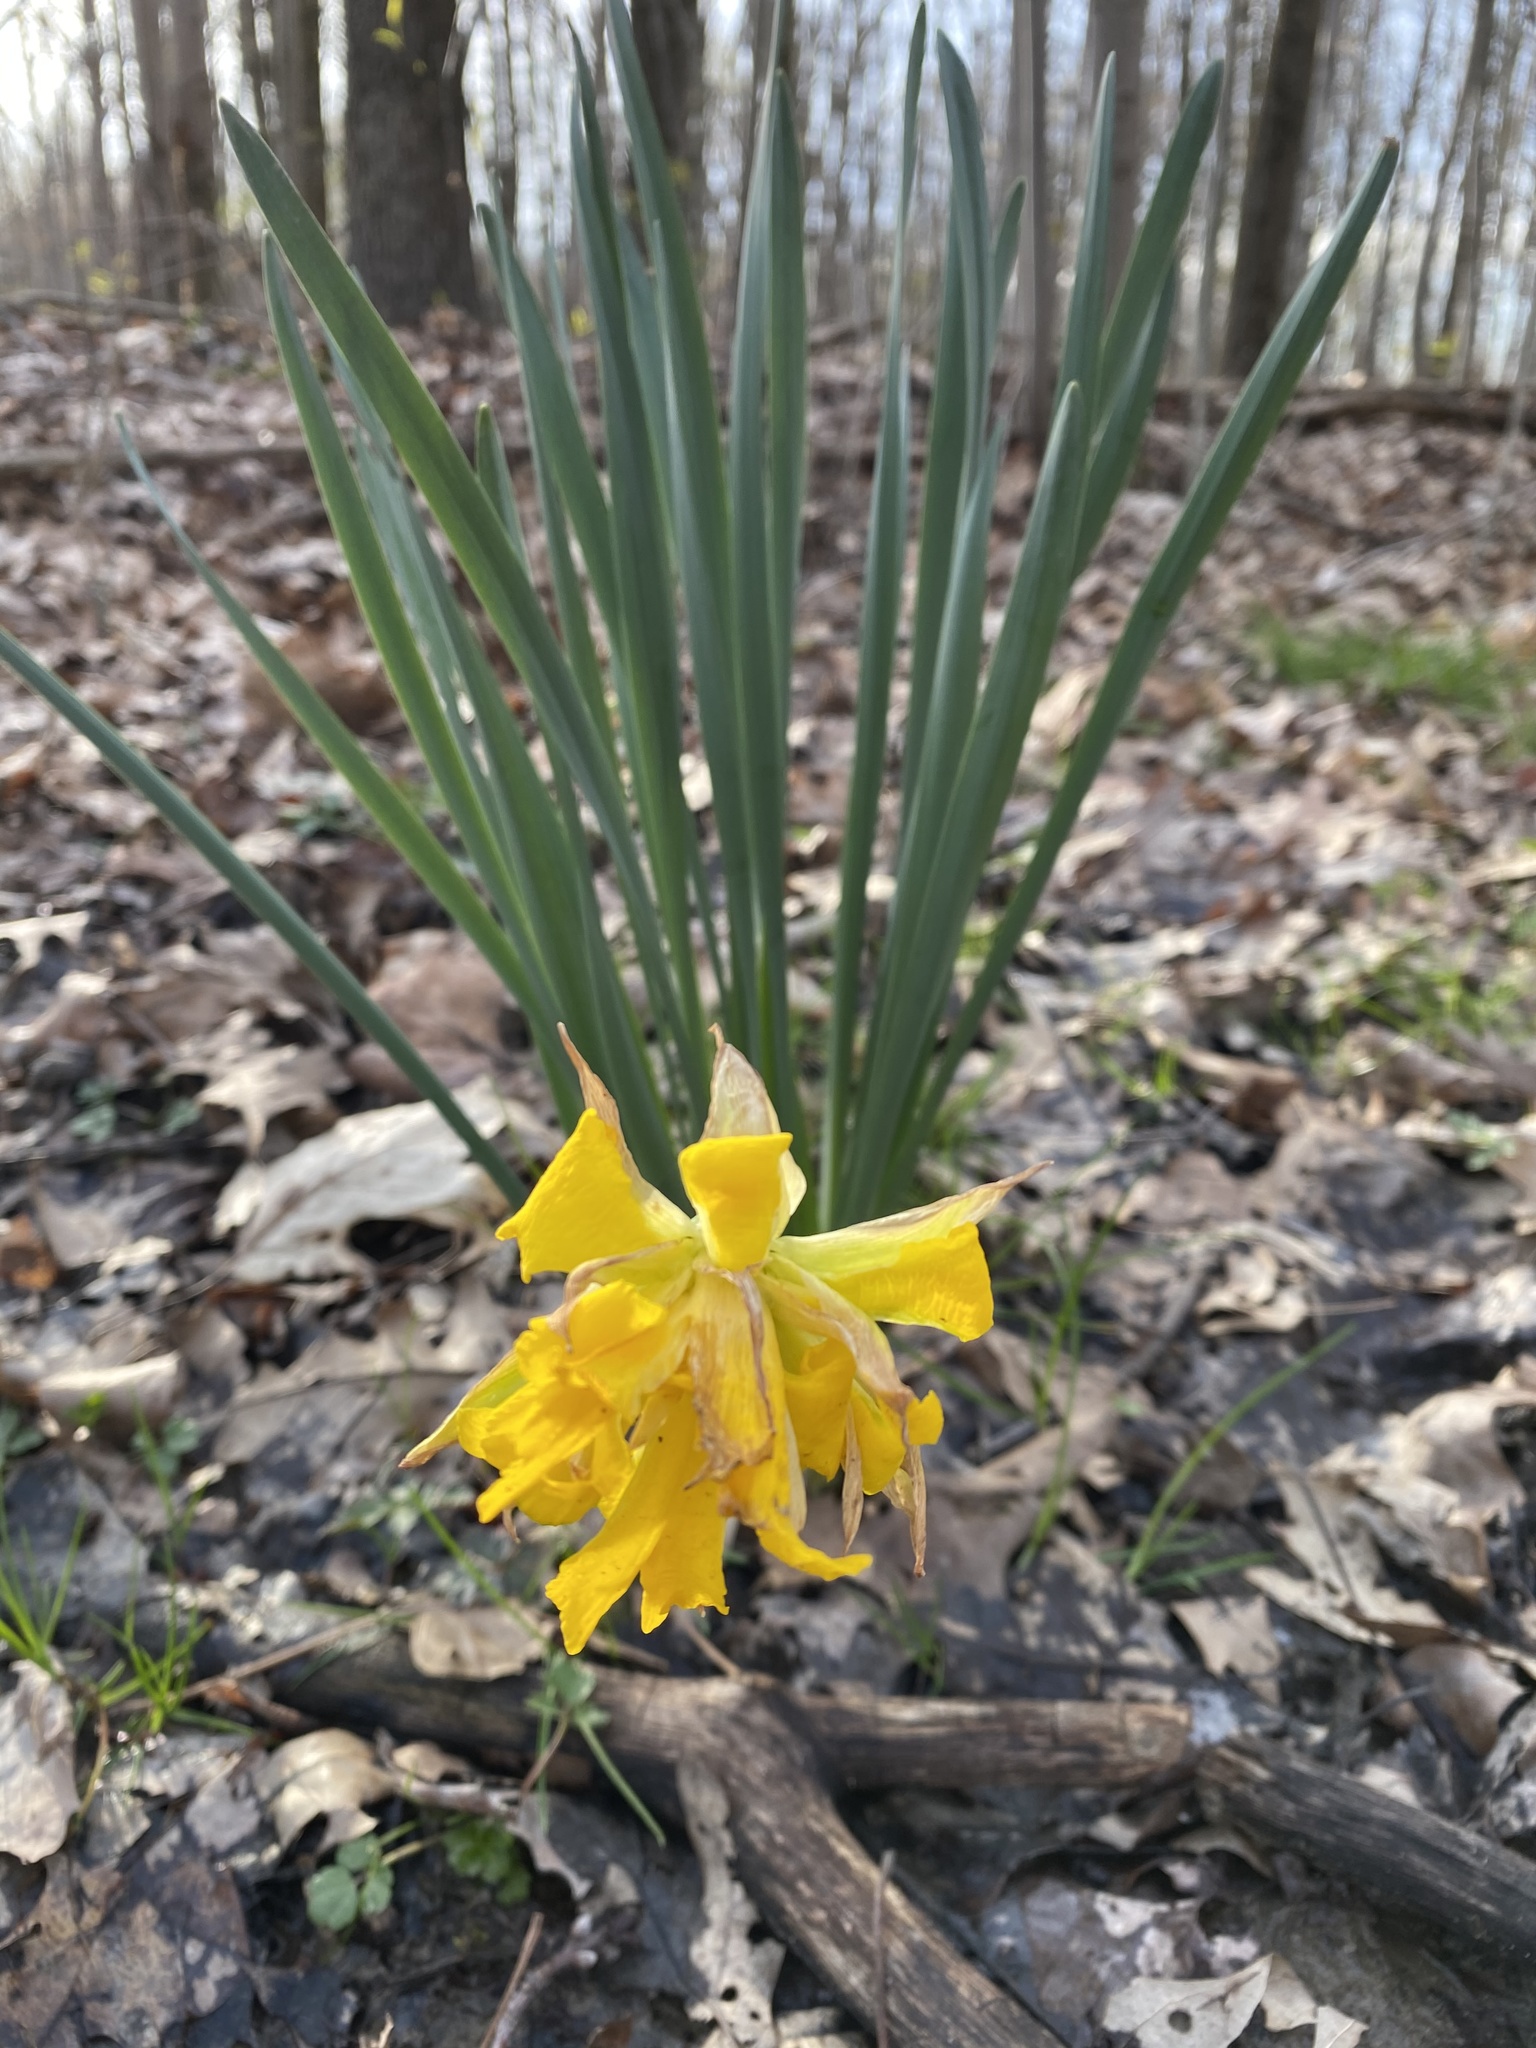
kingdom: Plantae
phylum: Tracheophyta
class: Liliopsida
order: Asparagales
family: Amaryllidaceae
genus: Narcissus
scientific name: Narcissus pseudonarcissus
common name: Daffodil
